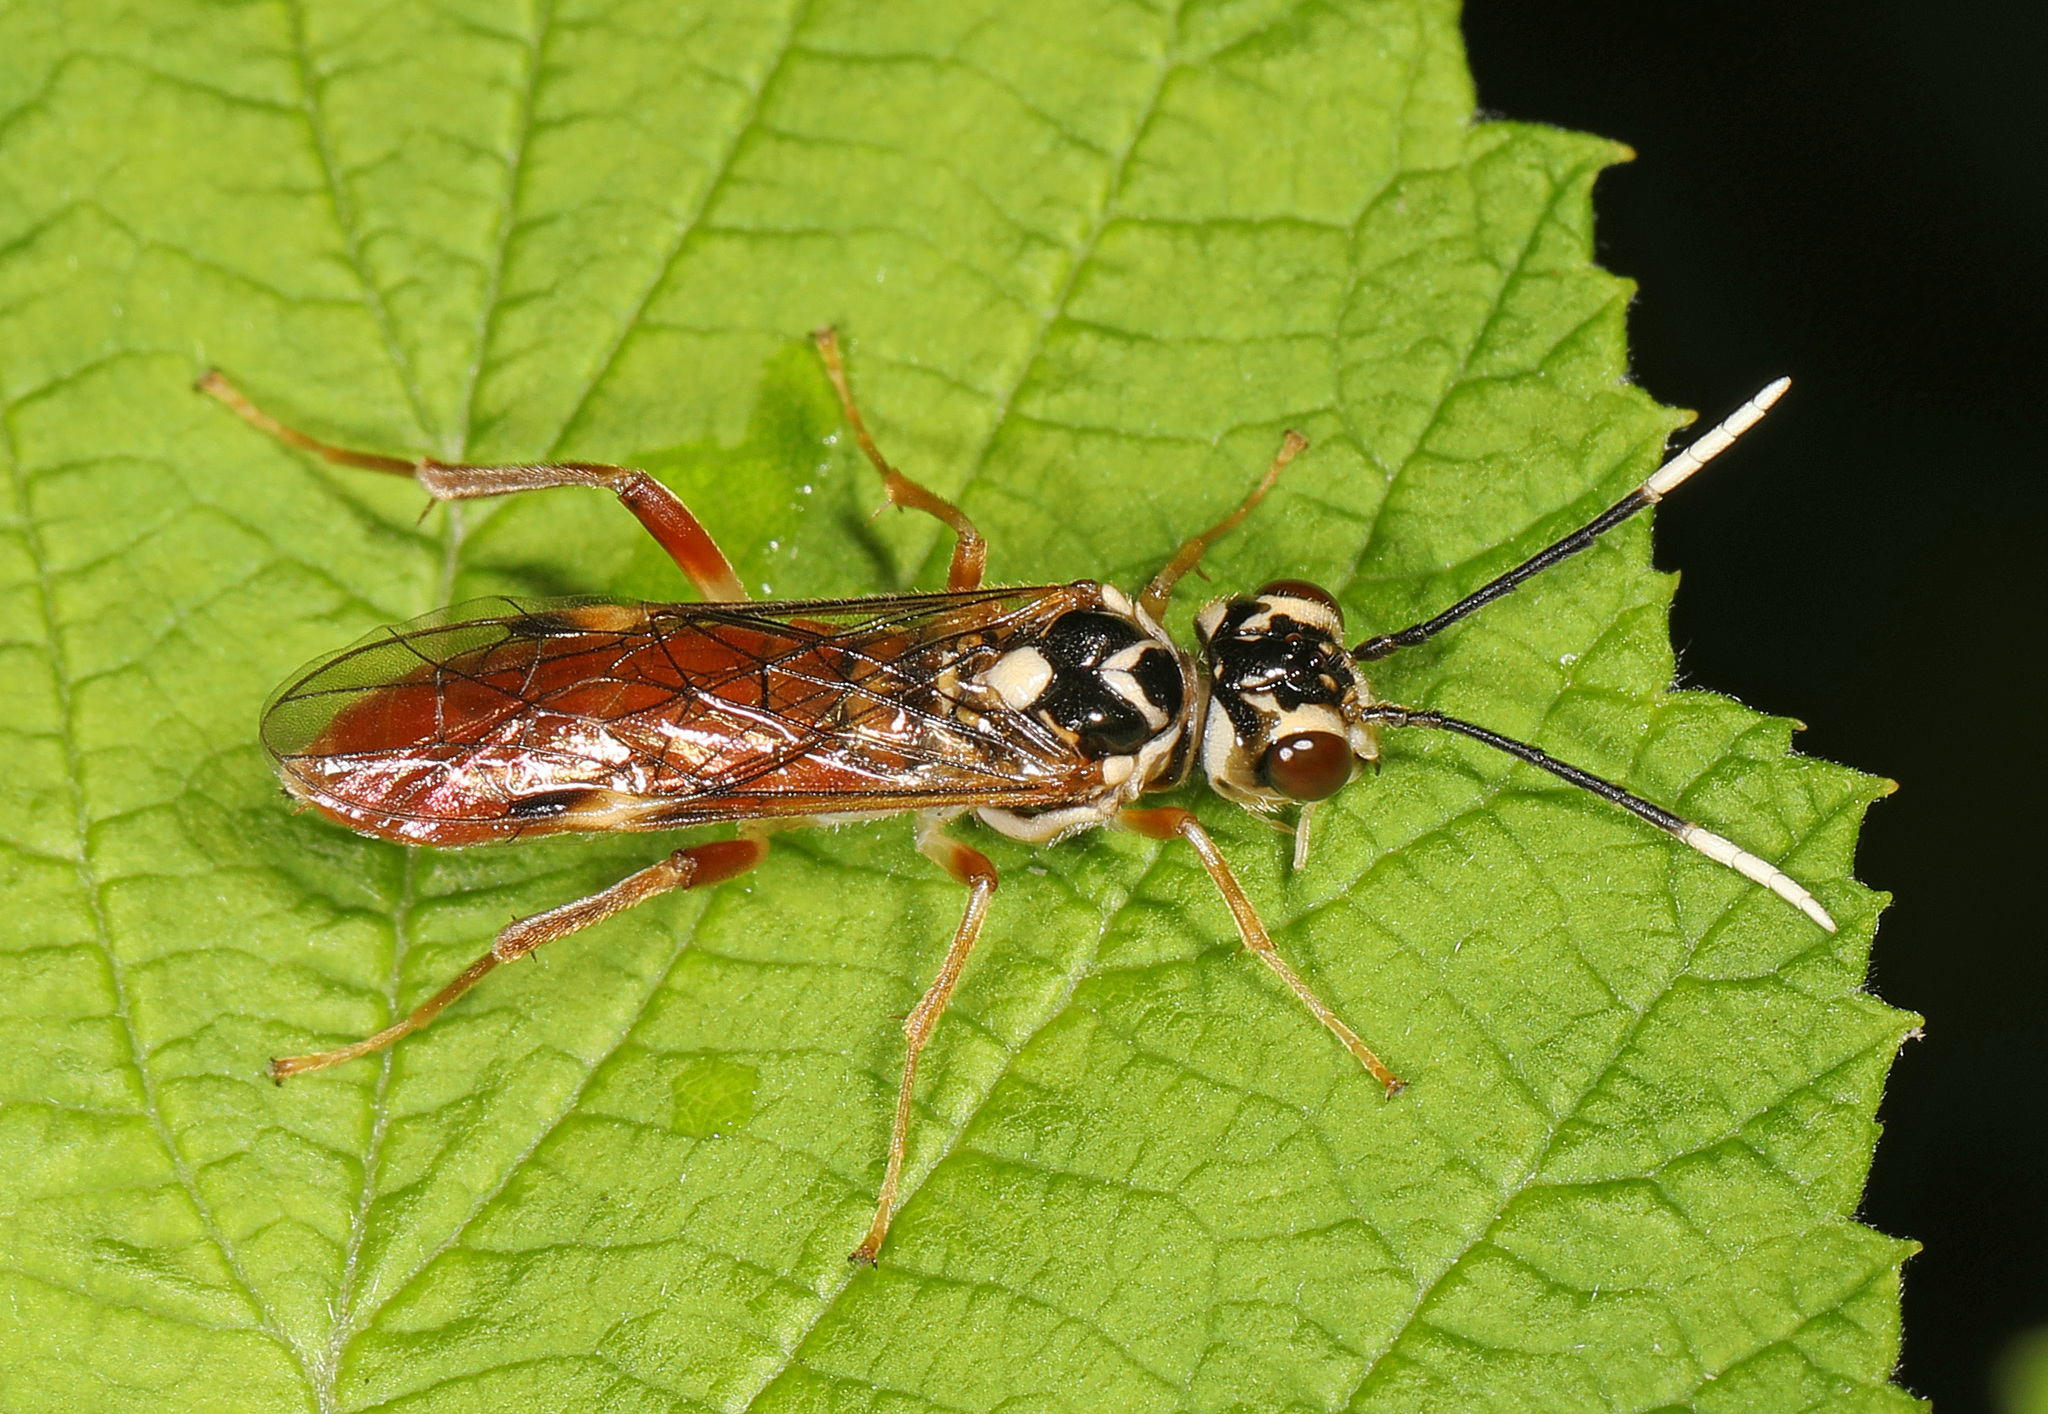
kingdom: Animalia
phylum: Arthropoda
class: Insecta
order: Hymenoptera
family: Tenthredinidae
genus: Taxonus
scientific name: Taxonus pallidicornis
